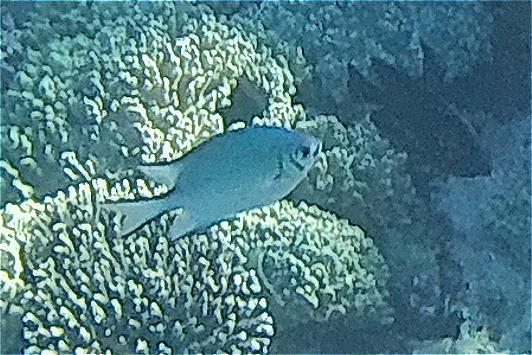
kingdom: Animalia
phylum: Chordata
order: Perciformes
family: Pomacentridae
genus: Amblyglyphidodon
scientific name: Amblyglyphidodon indicus
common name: Maldives damselfish
